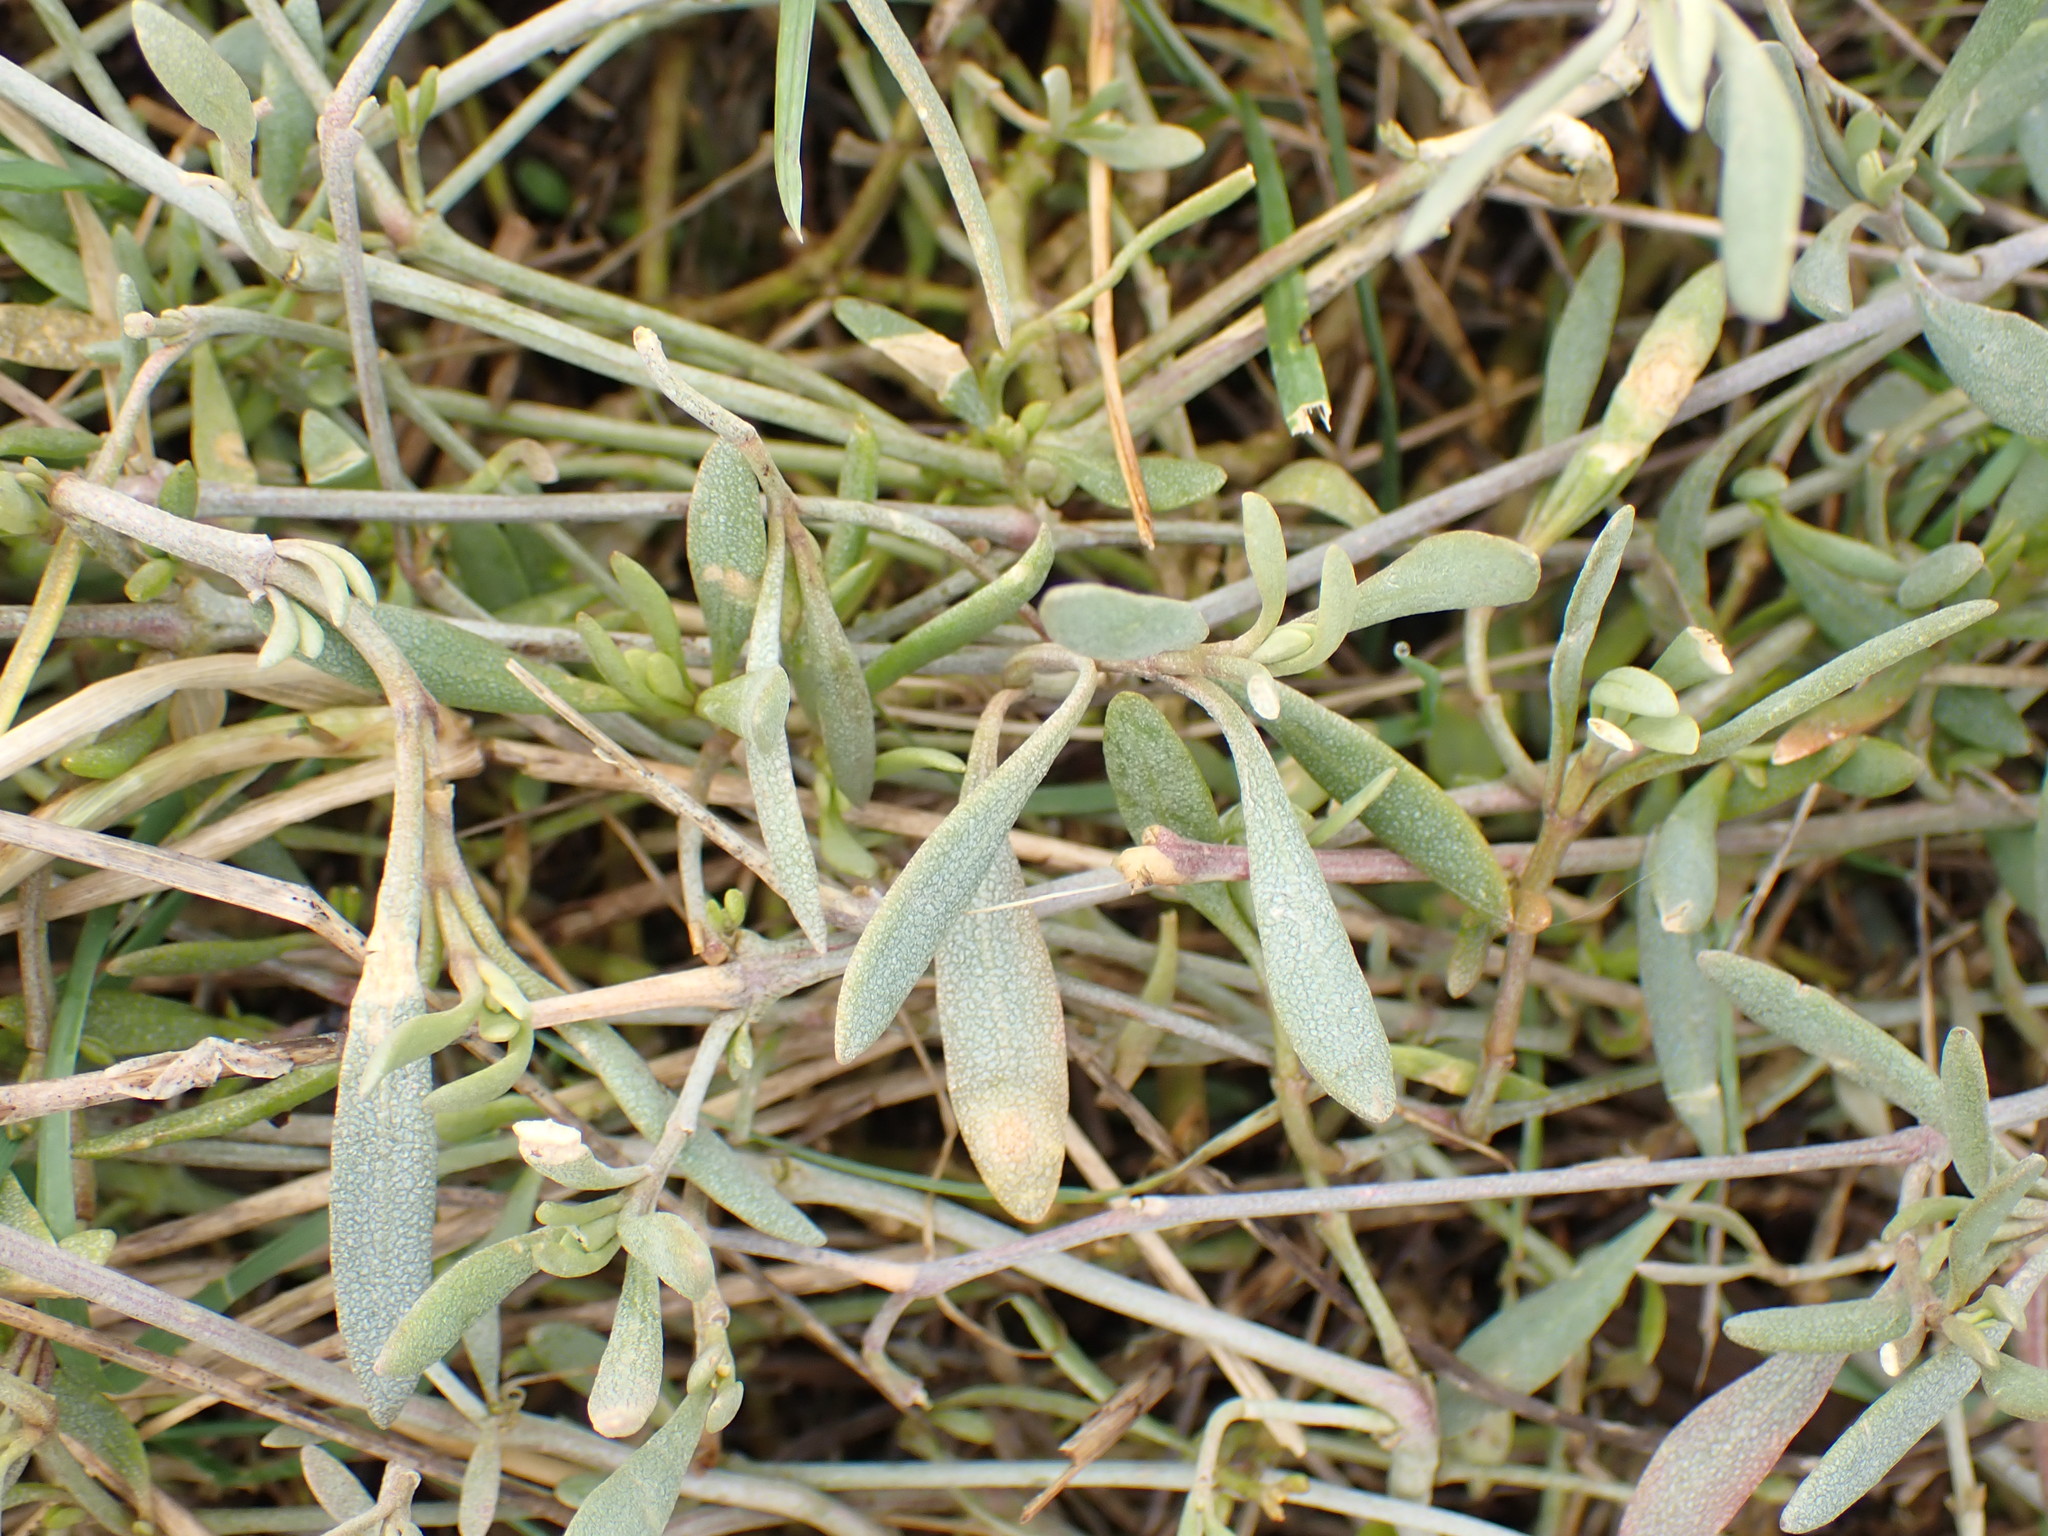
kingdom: Plantae
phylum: Tracheophyta
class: Magnoliopsida
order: Caryophyllales
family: Amaranthaceae
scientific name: Amaranthaceae
